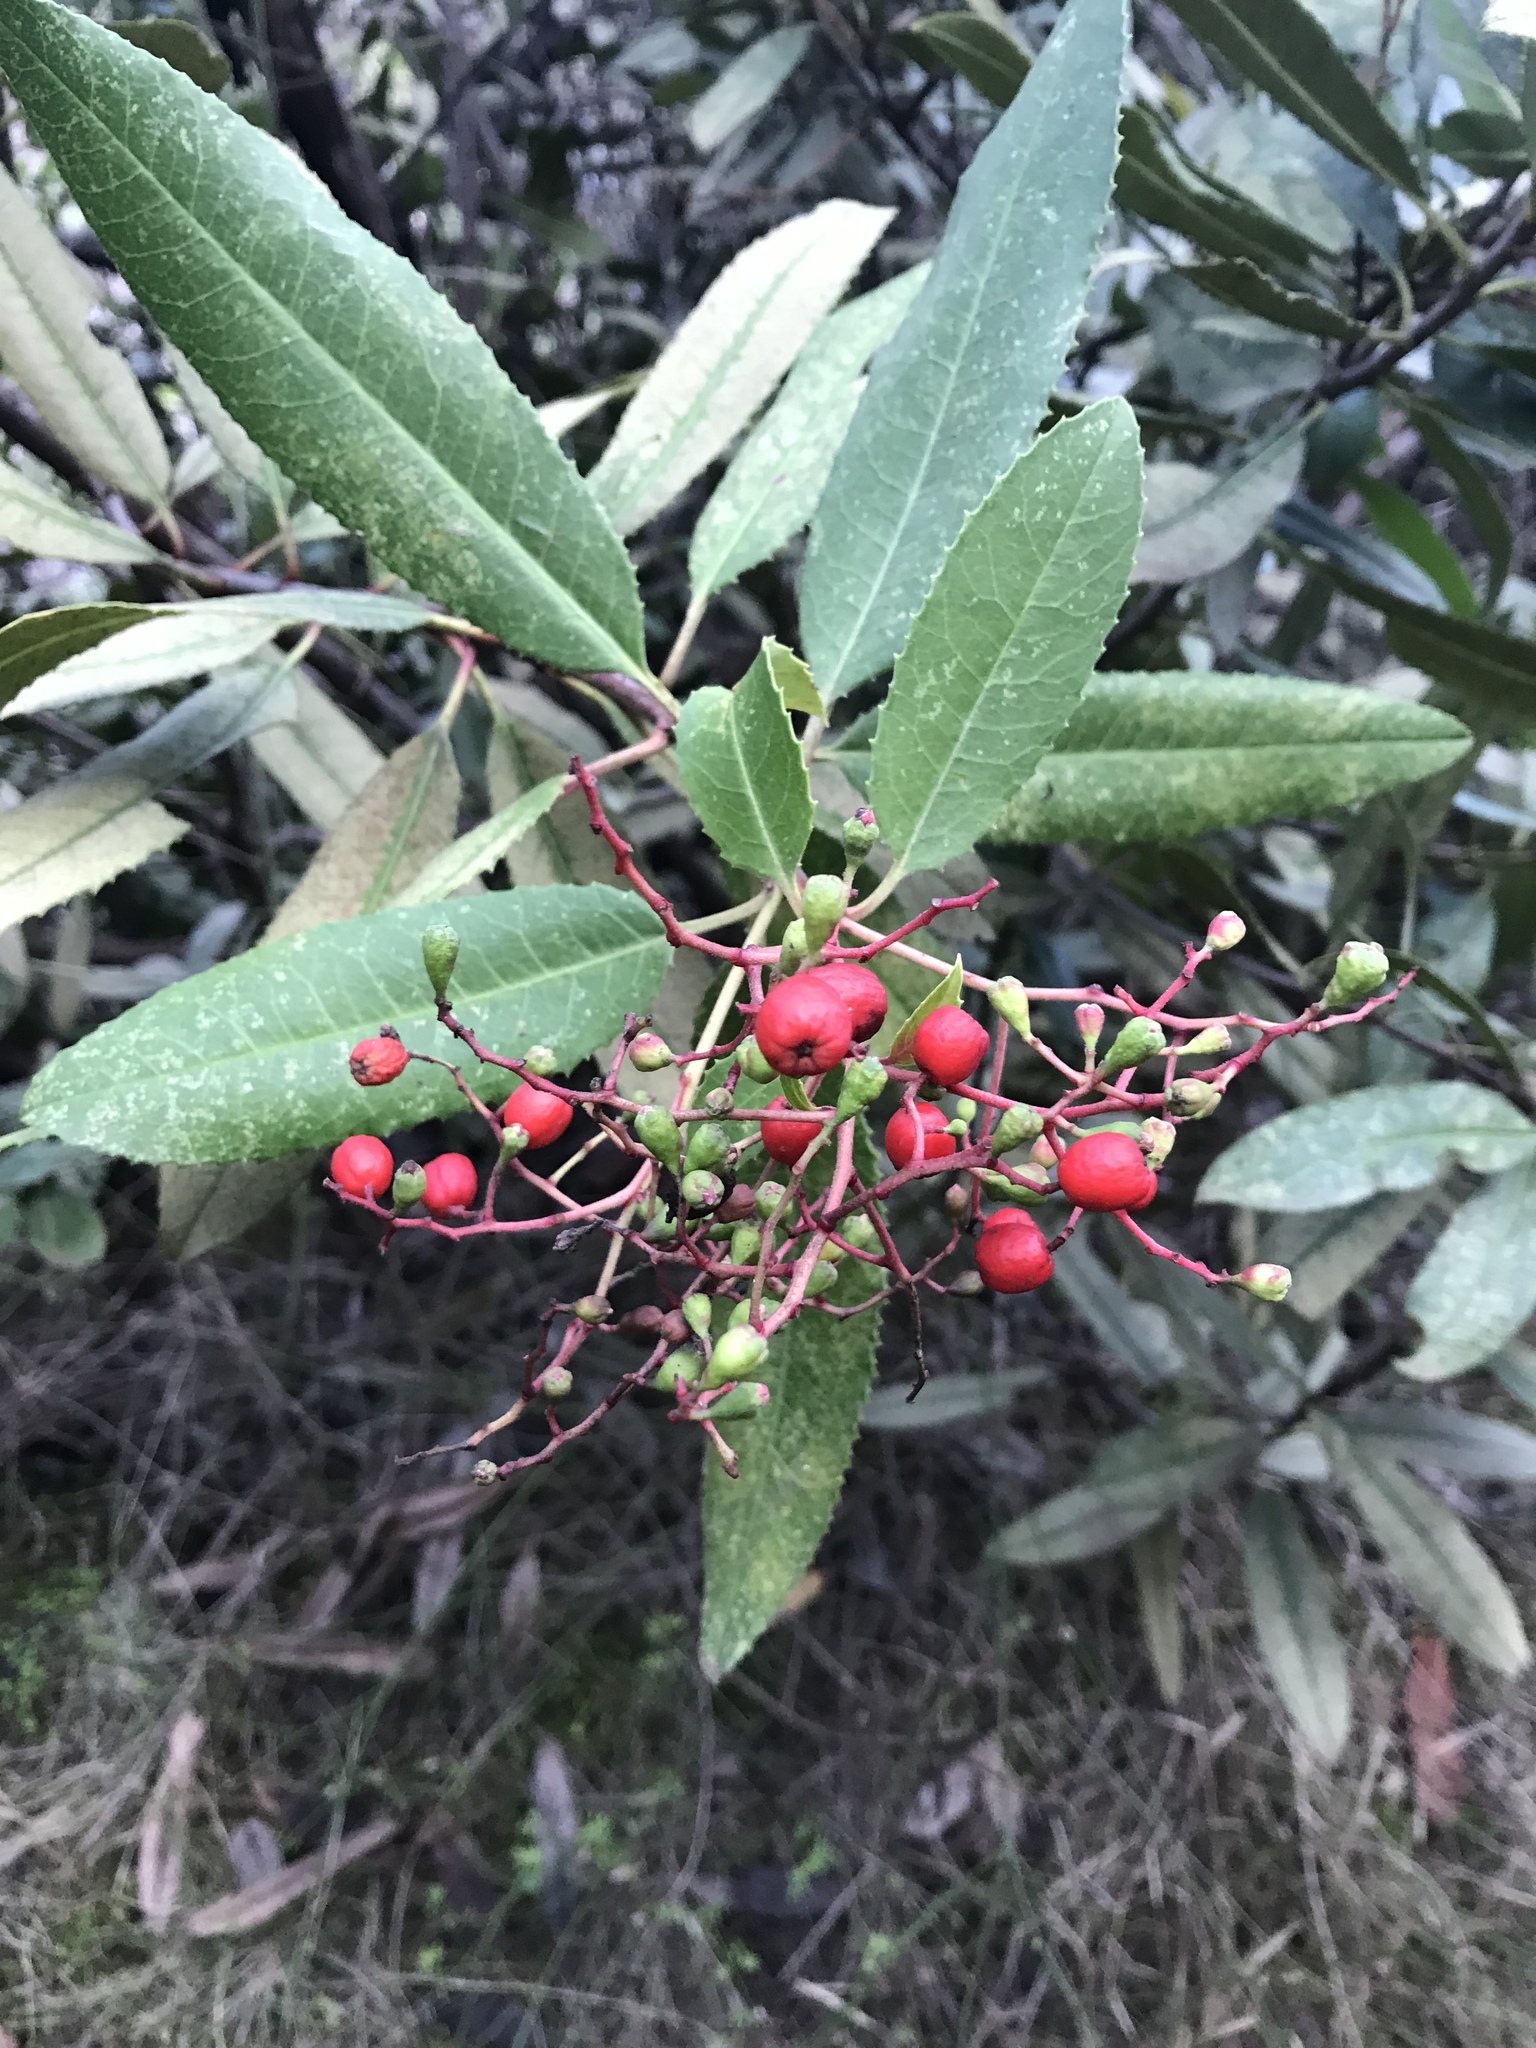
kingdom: Plantae
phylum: Tracheophyta
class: Magnoliopsida
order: Rosales
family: Rosaceae
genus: Heteromeles
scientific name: Heteromeles arbutifolia
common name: California-holly
